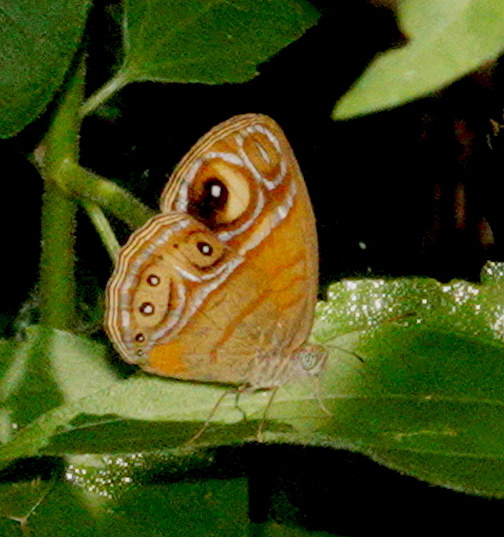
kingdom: Animalia
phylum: Arthropoda
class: Insecta
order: Lepidoptera
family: Nymphalidae
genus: Mycalesis
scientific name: Mycalesis patnia
